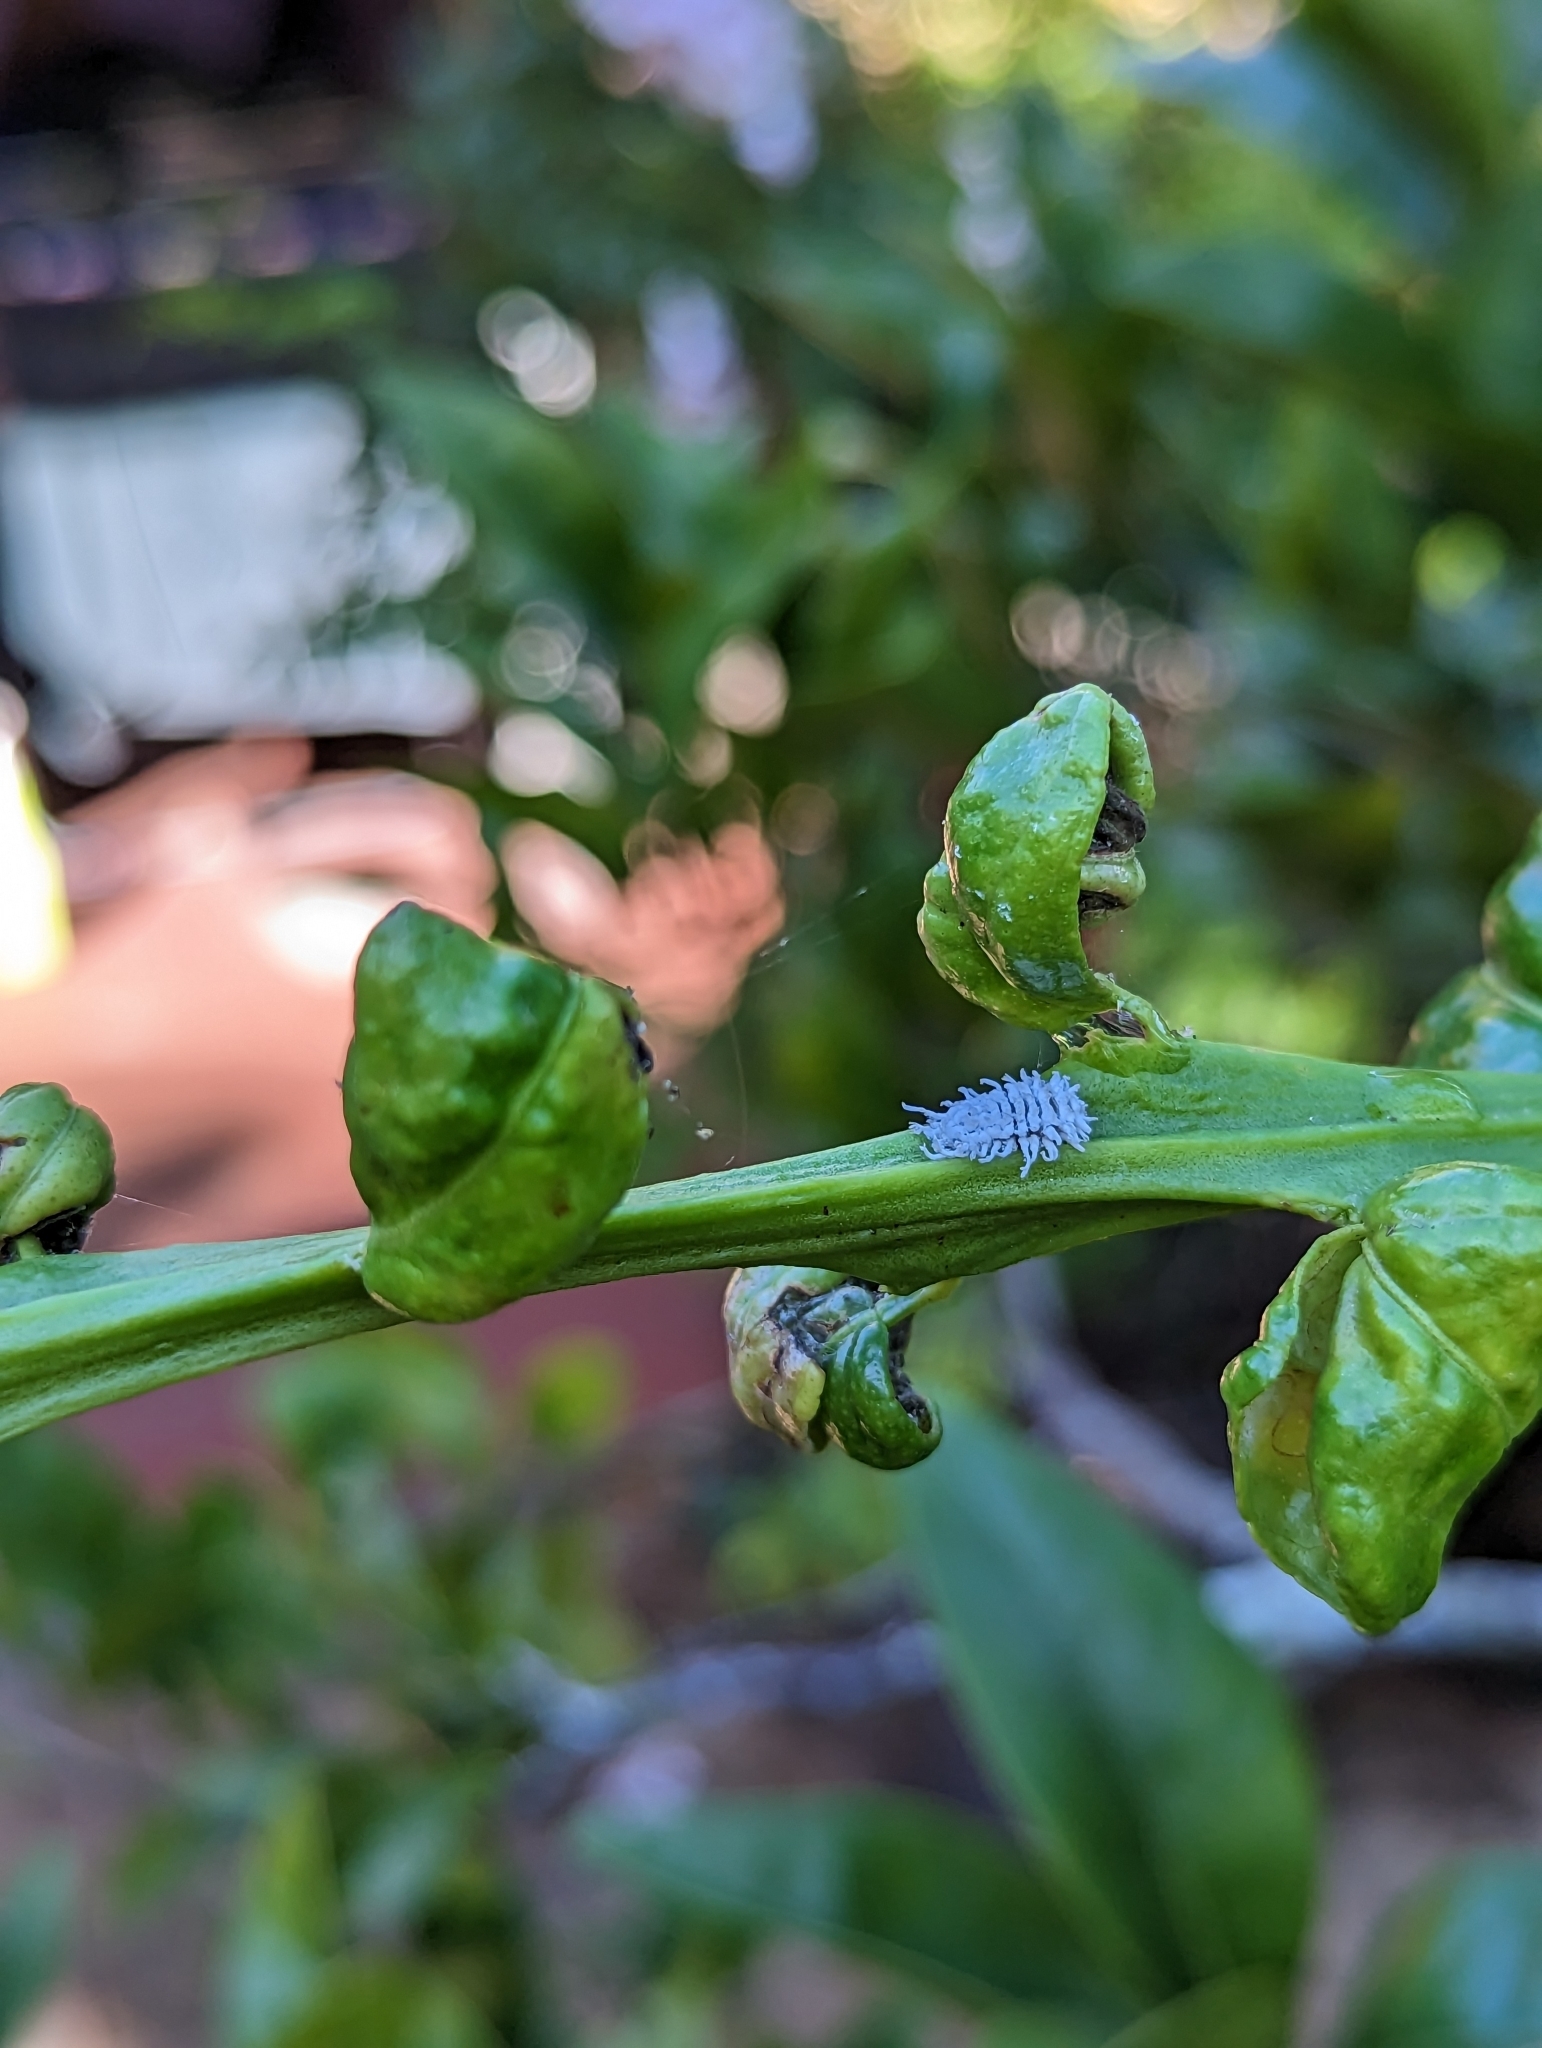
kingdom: Animalia
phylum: Arthropoda
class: Insecta
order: Coleoptera
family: Coccinellidae
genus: Cryptolaemus
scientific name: Cryptolaemus montrouzieri
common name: Mealybug destroyer
